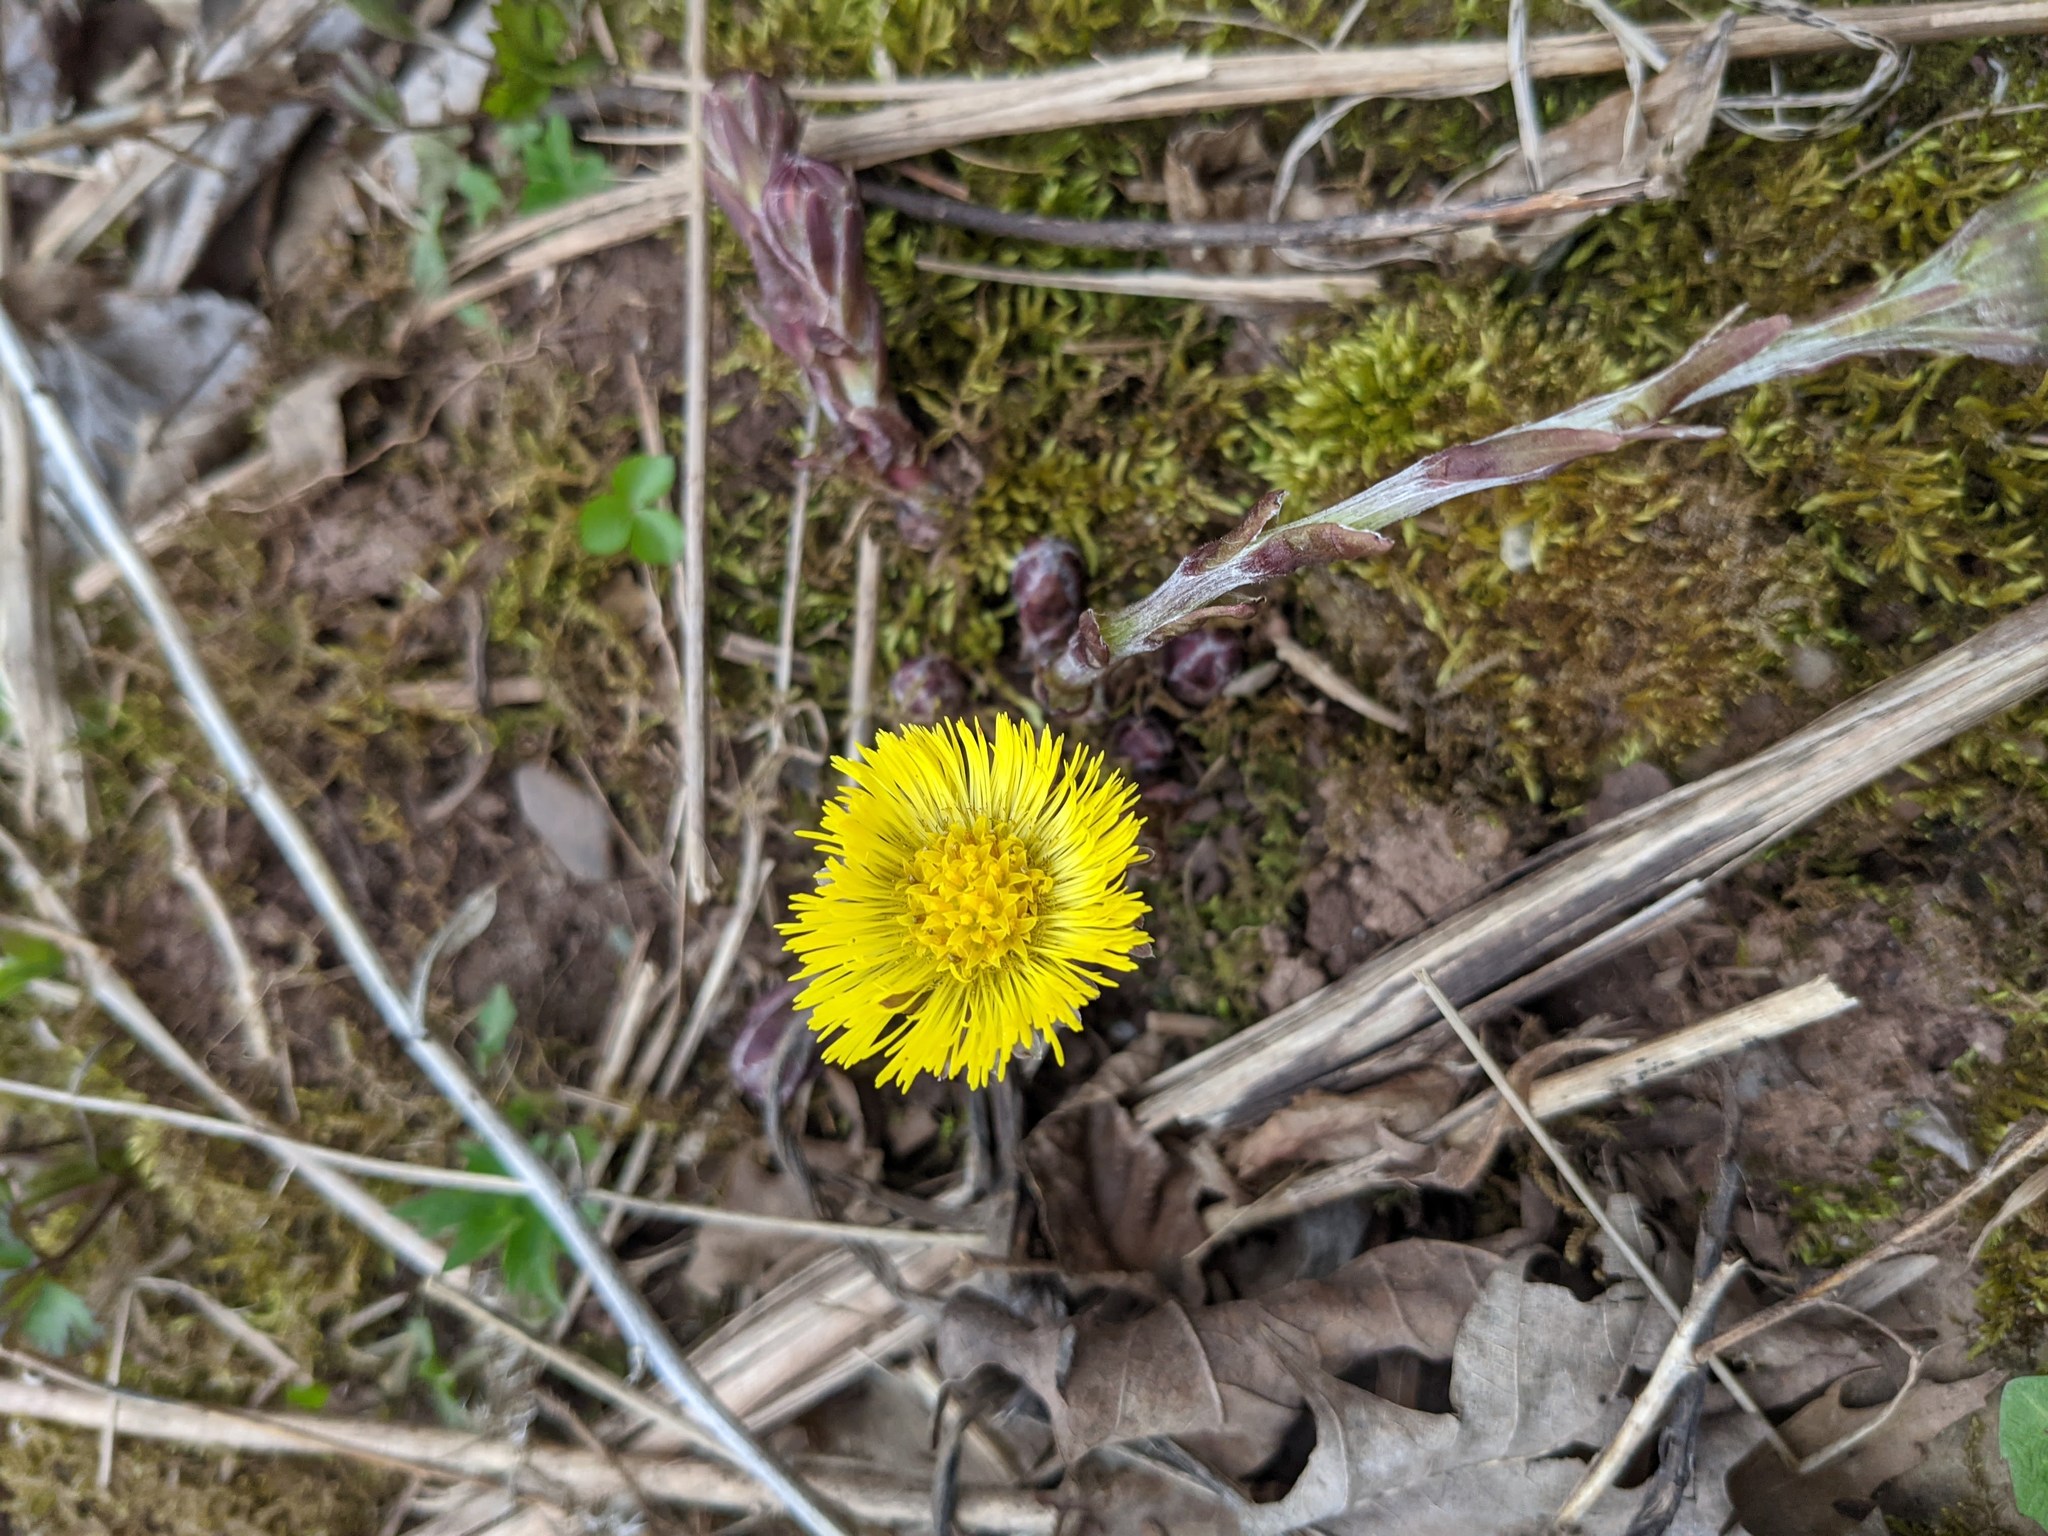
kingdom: Plantae
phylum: Tracheophyta
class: Magnoliopsida
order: Asterales
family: Asteraceae
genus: Tussilago
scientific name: Tussilago farfara
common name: Coltsfoot
